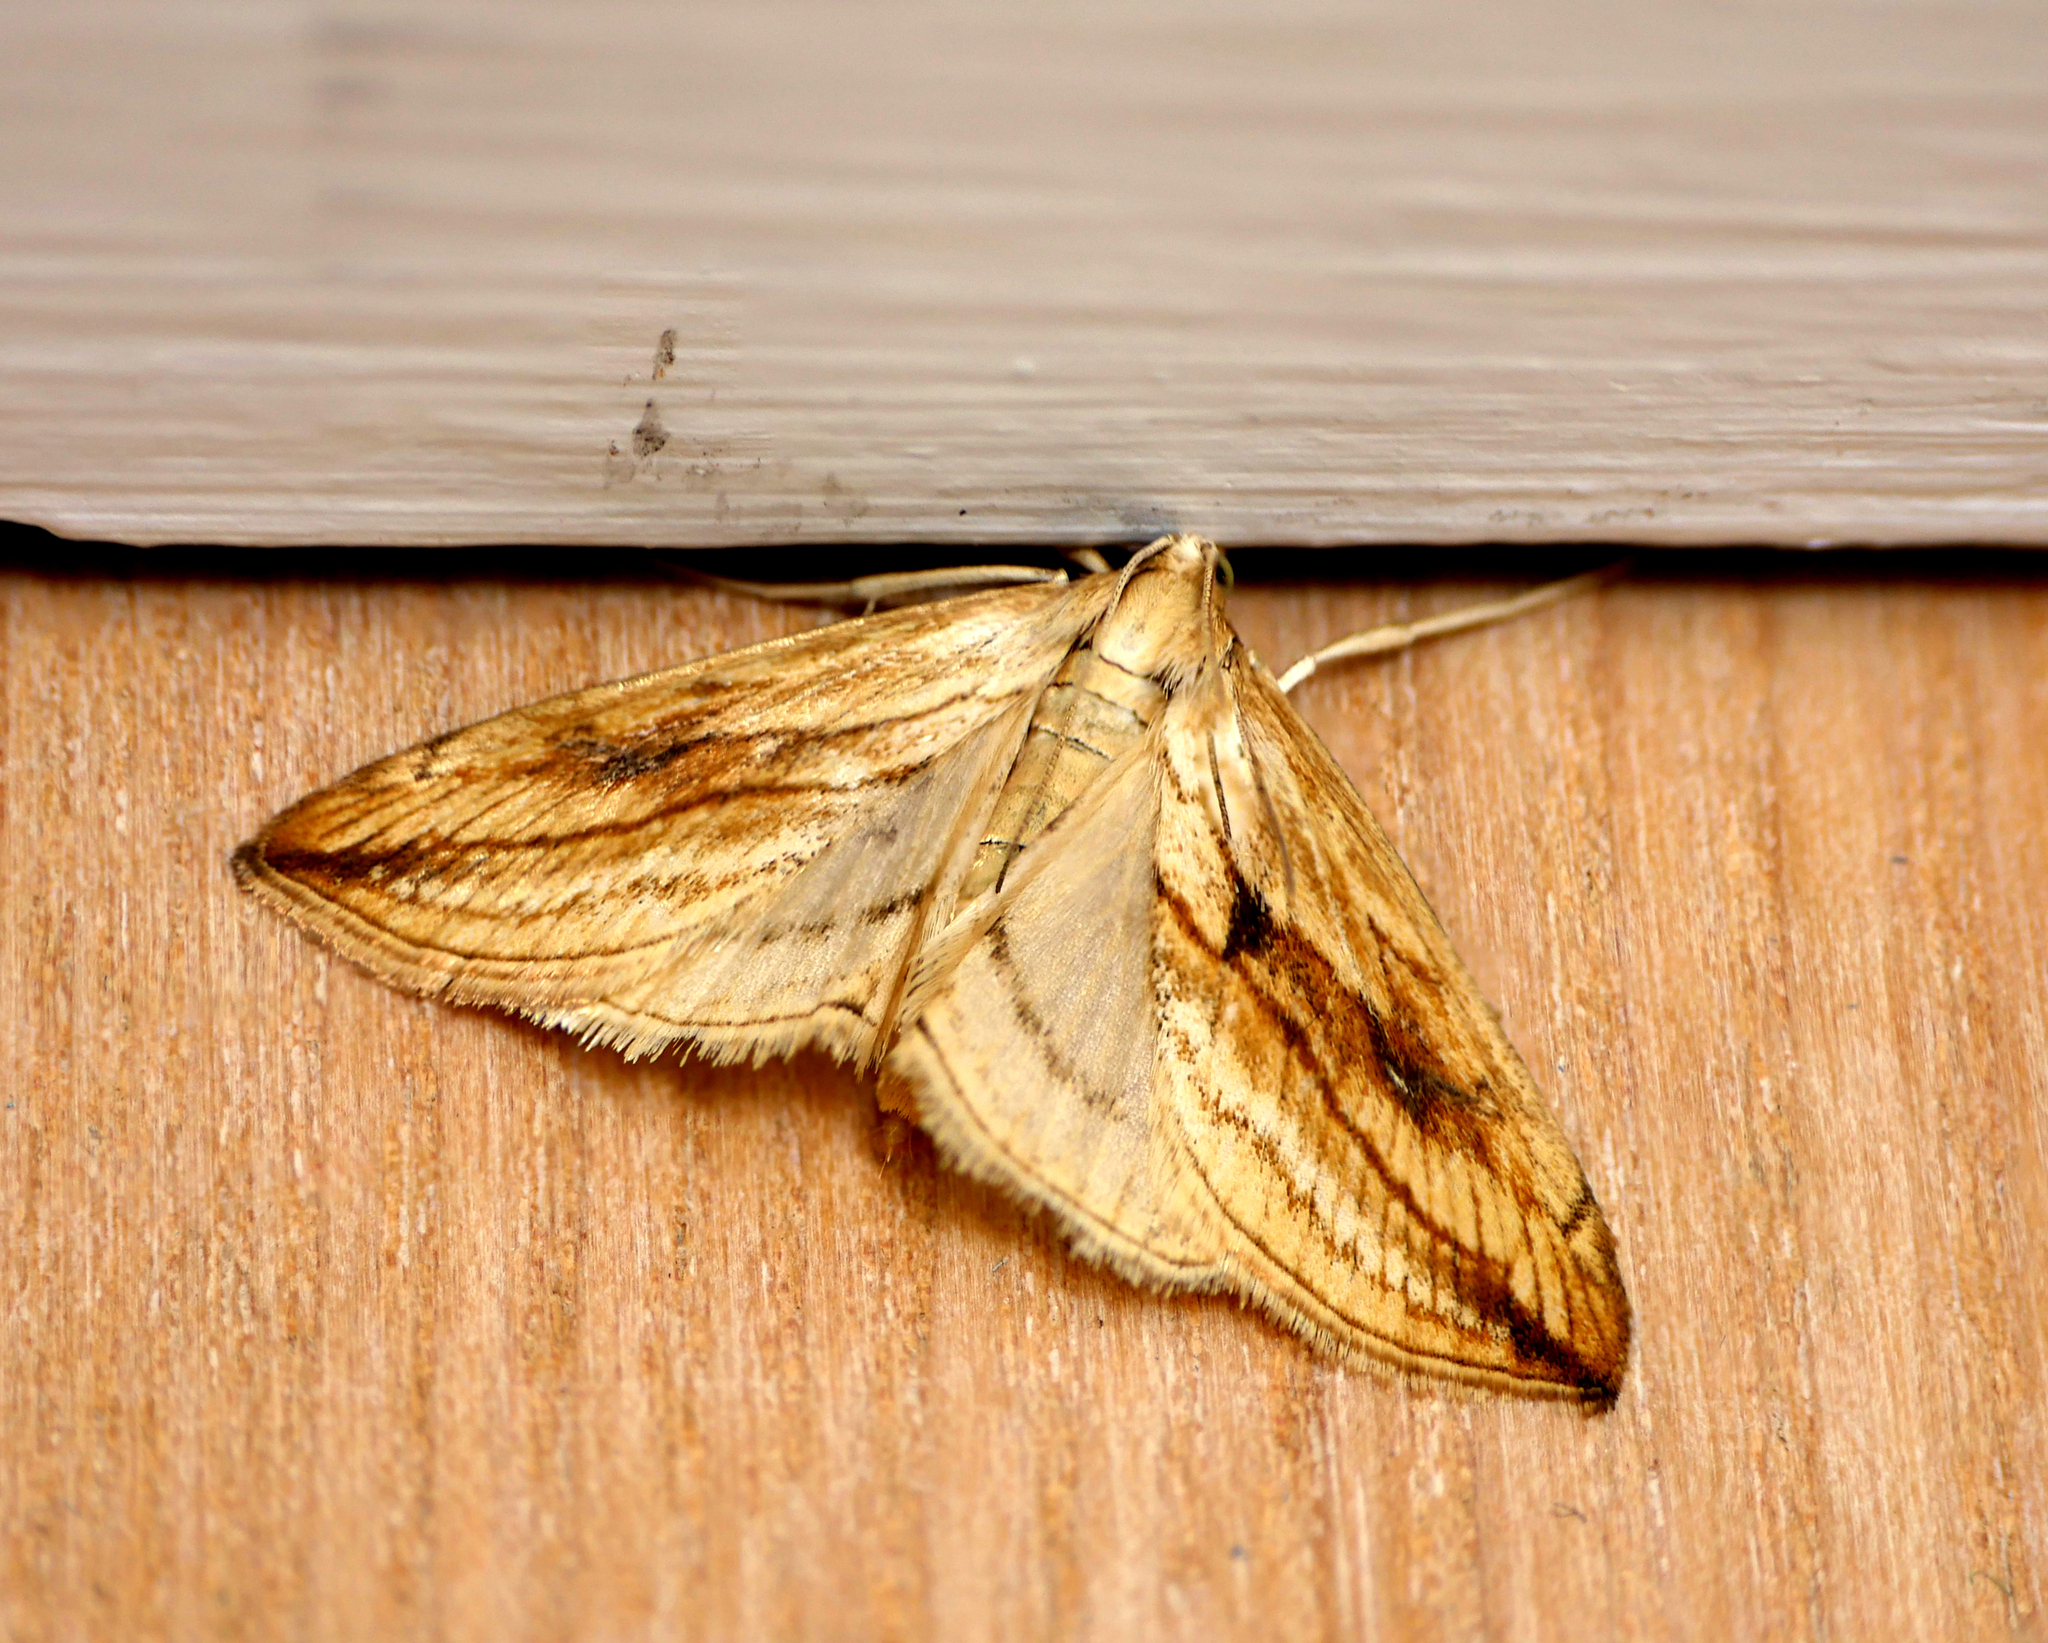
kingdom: Animalia
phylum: Arthropoda
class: Insecta
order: Lepidoptera
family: Crambidae
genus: Evergestis
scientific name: Evergestis forficalis
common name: Garden pebble
